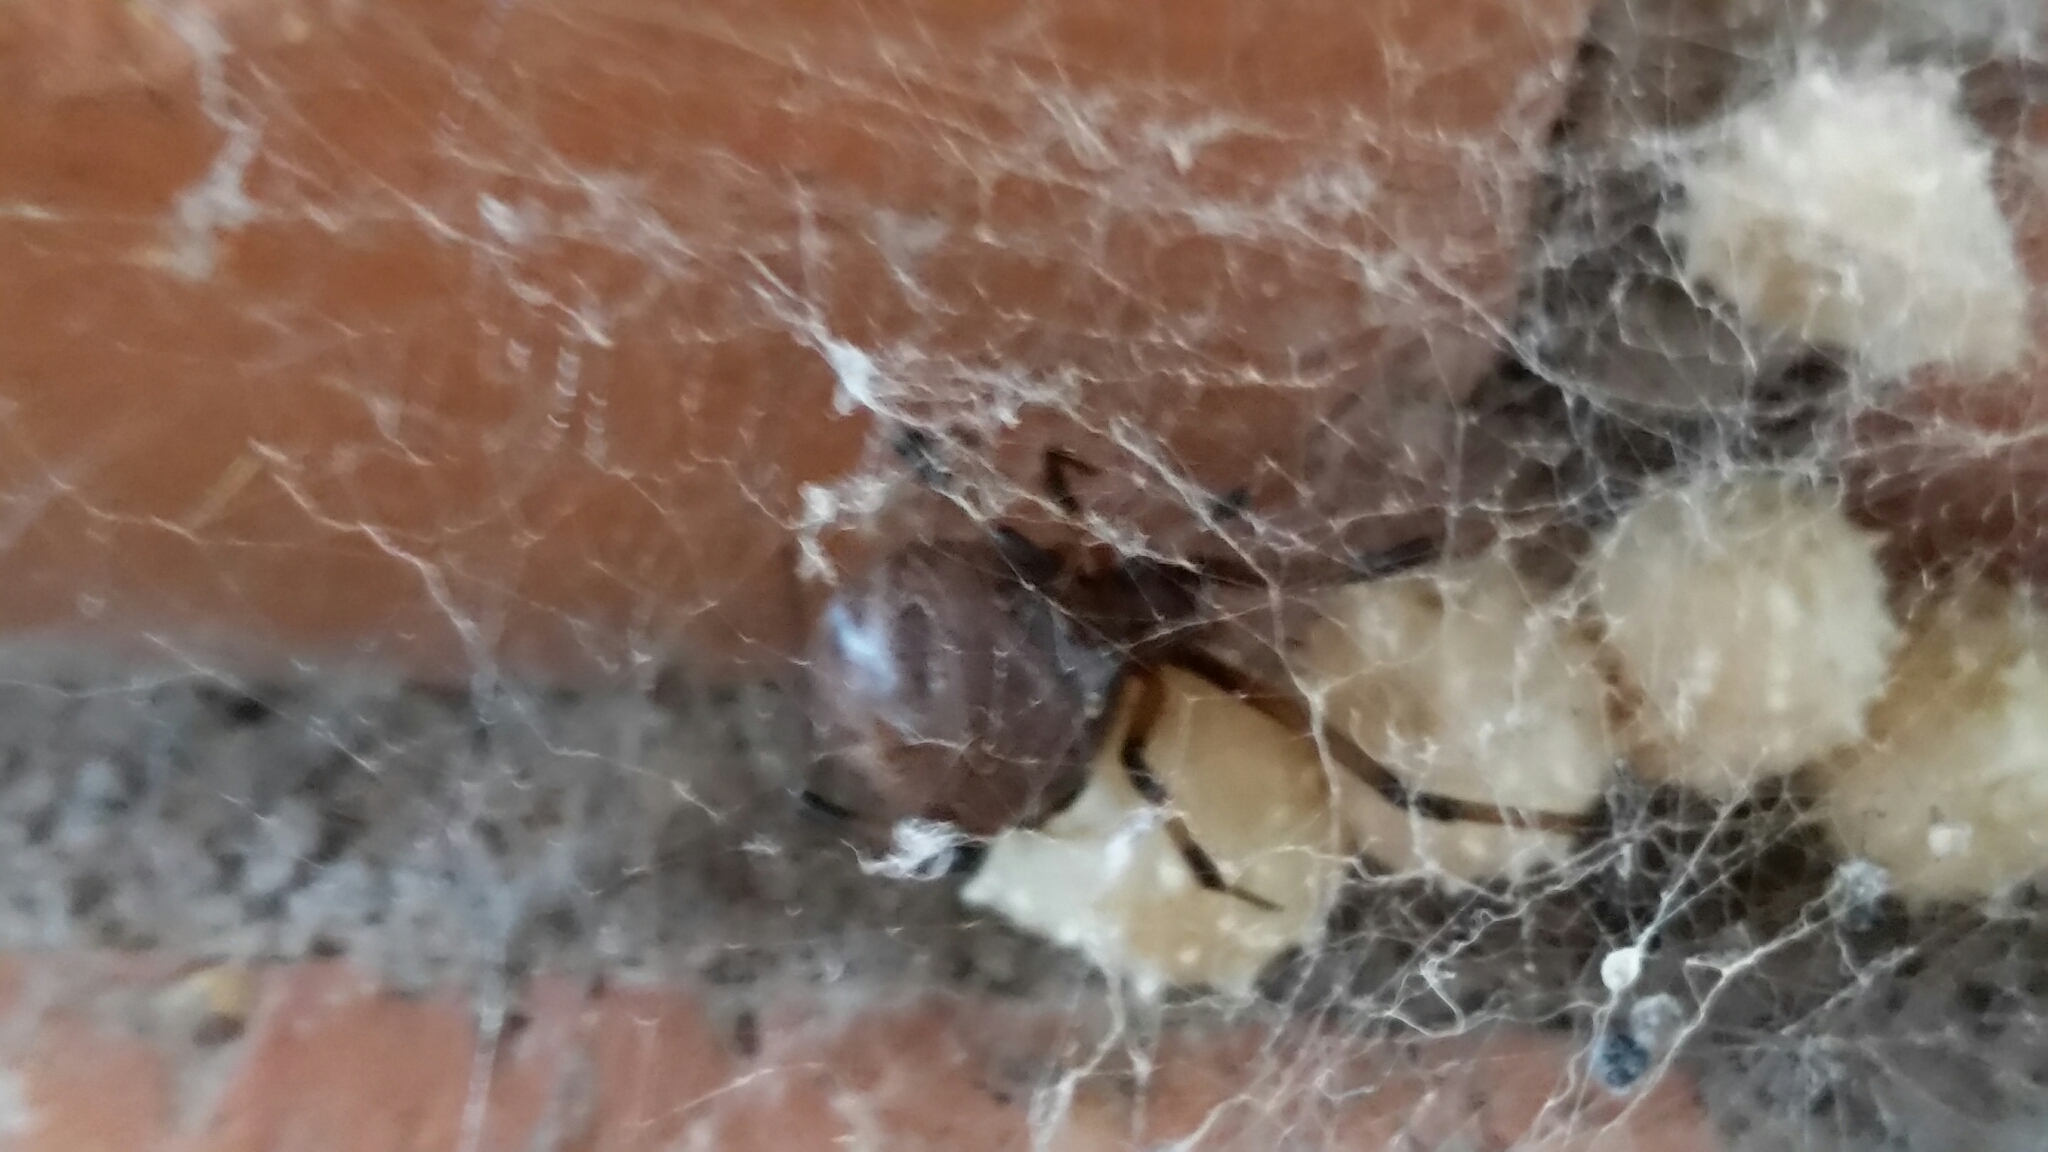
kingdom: Animalia
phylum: Arthropoda
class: Arachnida
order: Araneae
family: Theridiidae
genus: Latrodectus
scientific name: Latrodectus geometricus
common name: Brown widow spider
